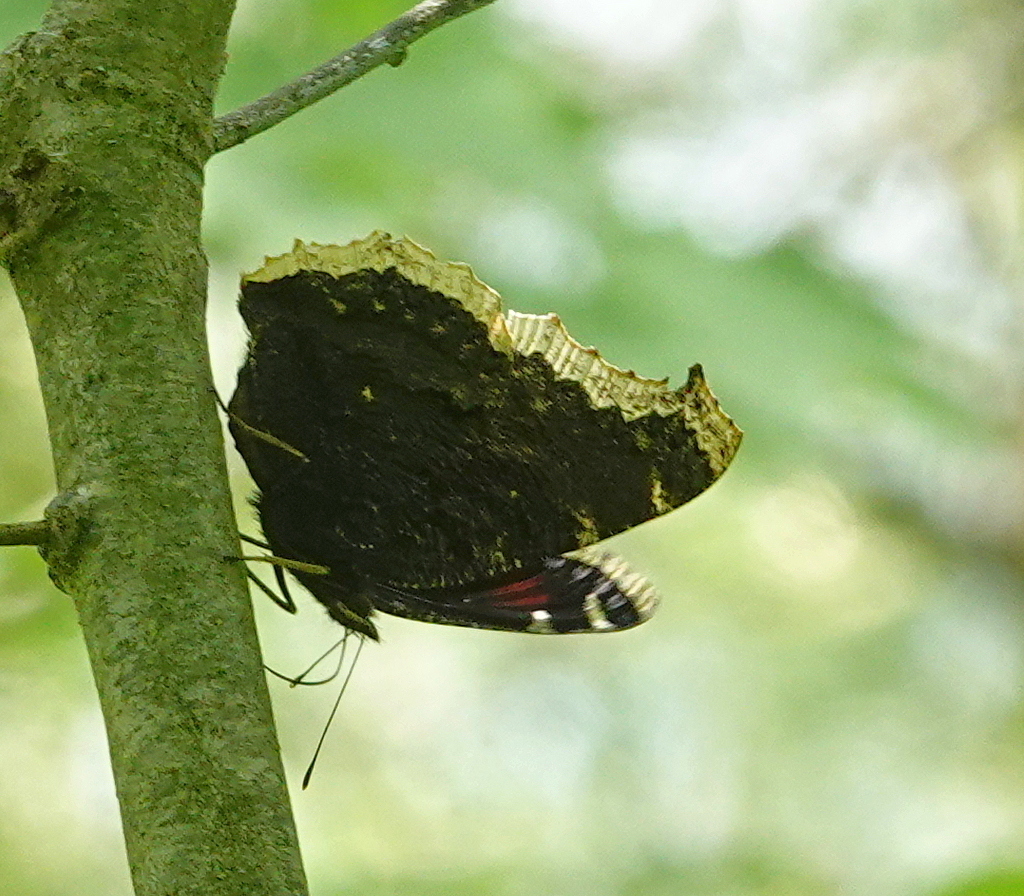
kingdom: Animalia
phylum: Arthropoda
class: Insecta
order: Lepidoptera
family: Nymphalidae
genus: Nymphalis
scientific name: Nymphalis antiopa
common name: Camberwell beauty
